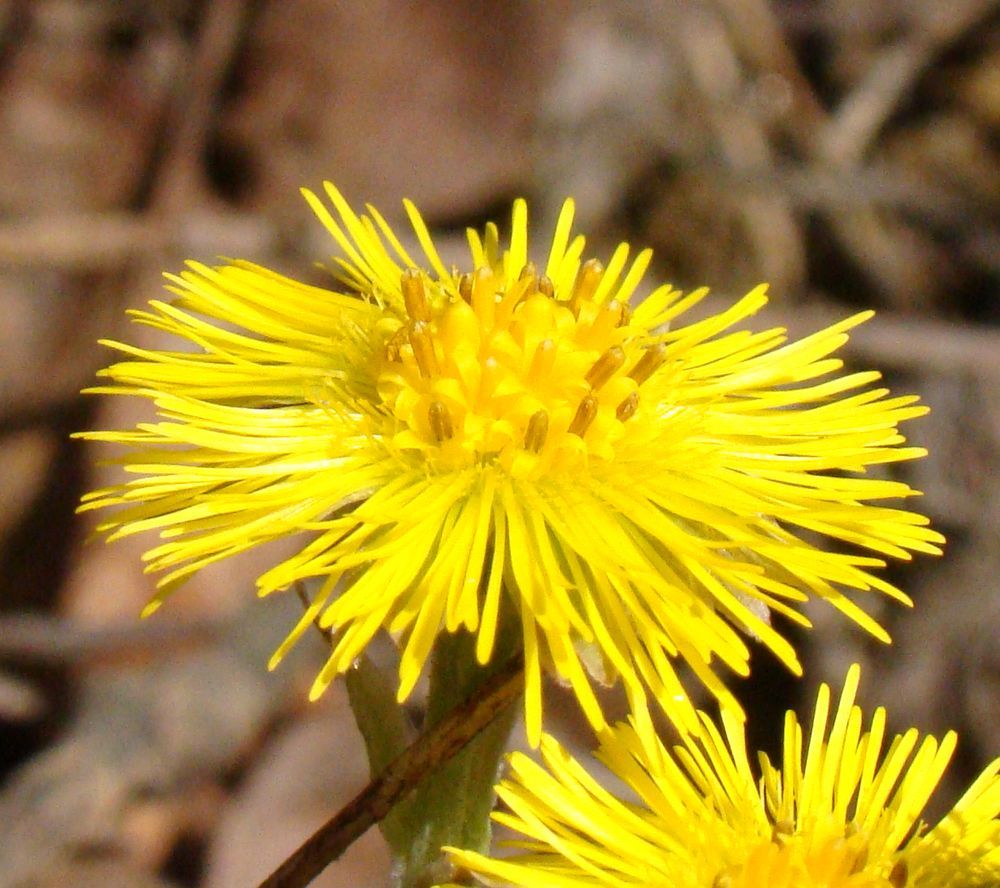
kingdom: Plantae
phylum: Tracheophyta
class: Magnoliopsida
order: Asterales
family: Asteraceae
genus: Tussilago
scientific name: Tussilago farfara
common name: Coltsfoot
